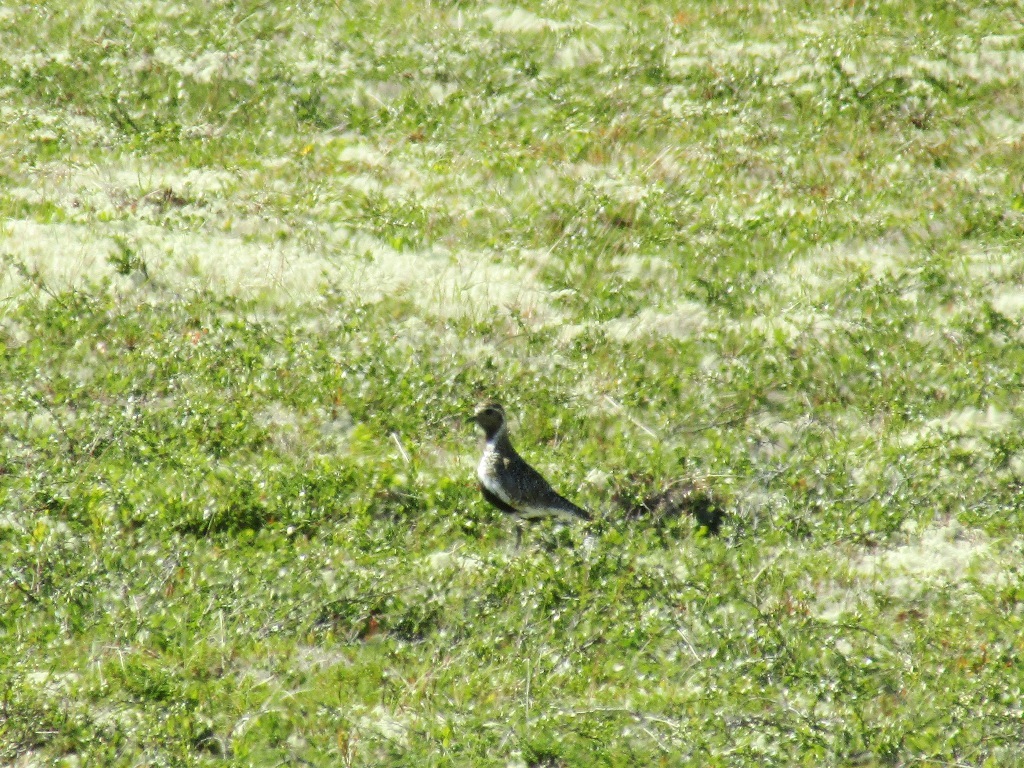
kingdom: Animalia
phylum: Chordata
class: Aves
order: Charadriiformes
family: Charadriidae
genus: Pluvialis
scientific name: Pluvialis apricaria
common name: European golden plover
